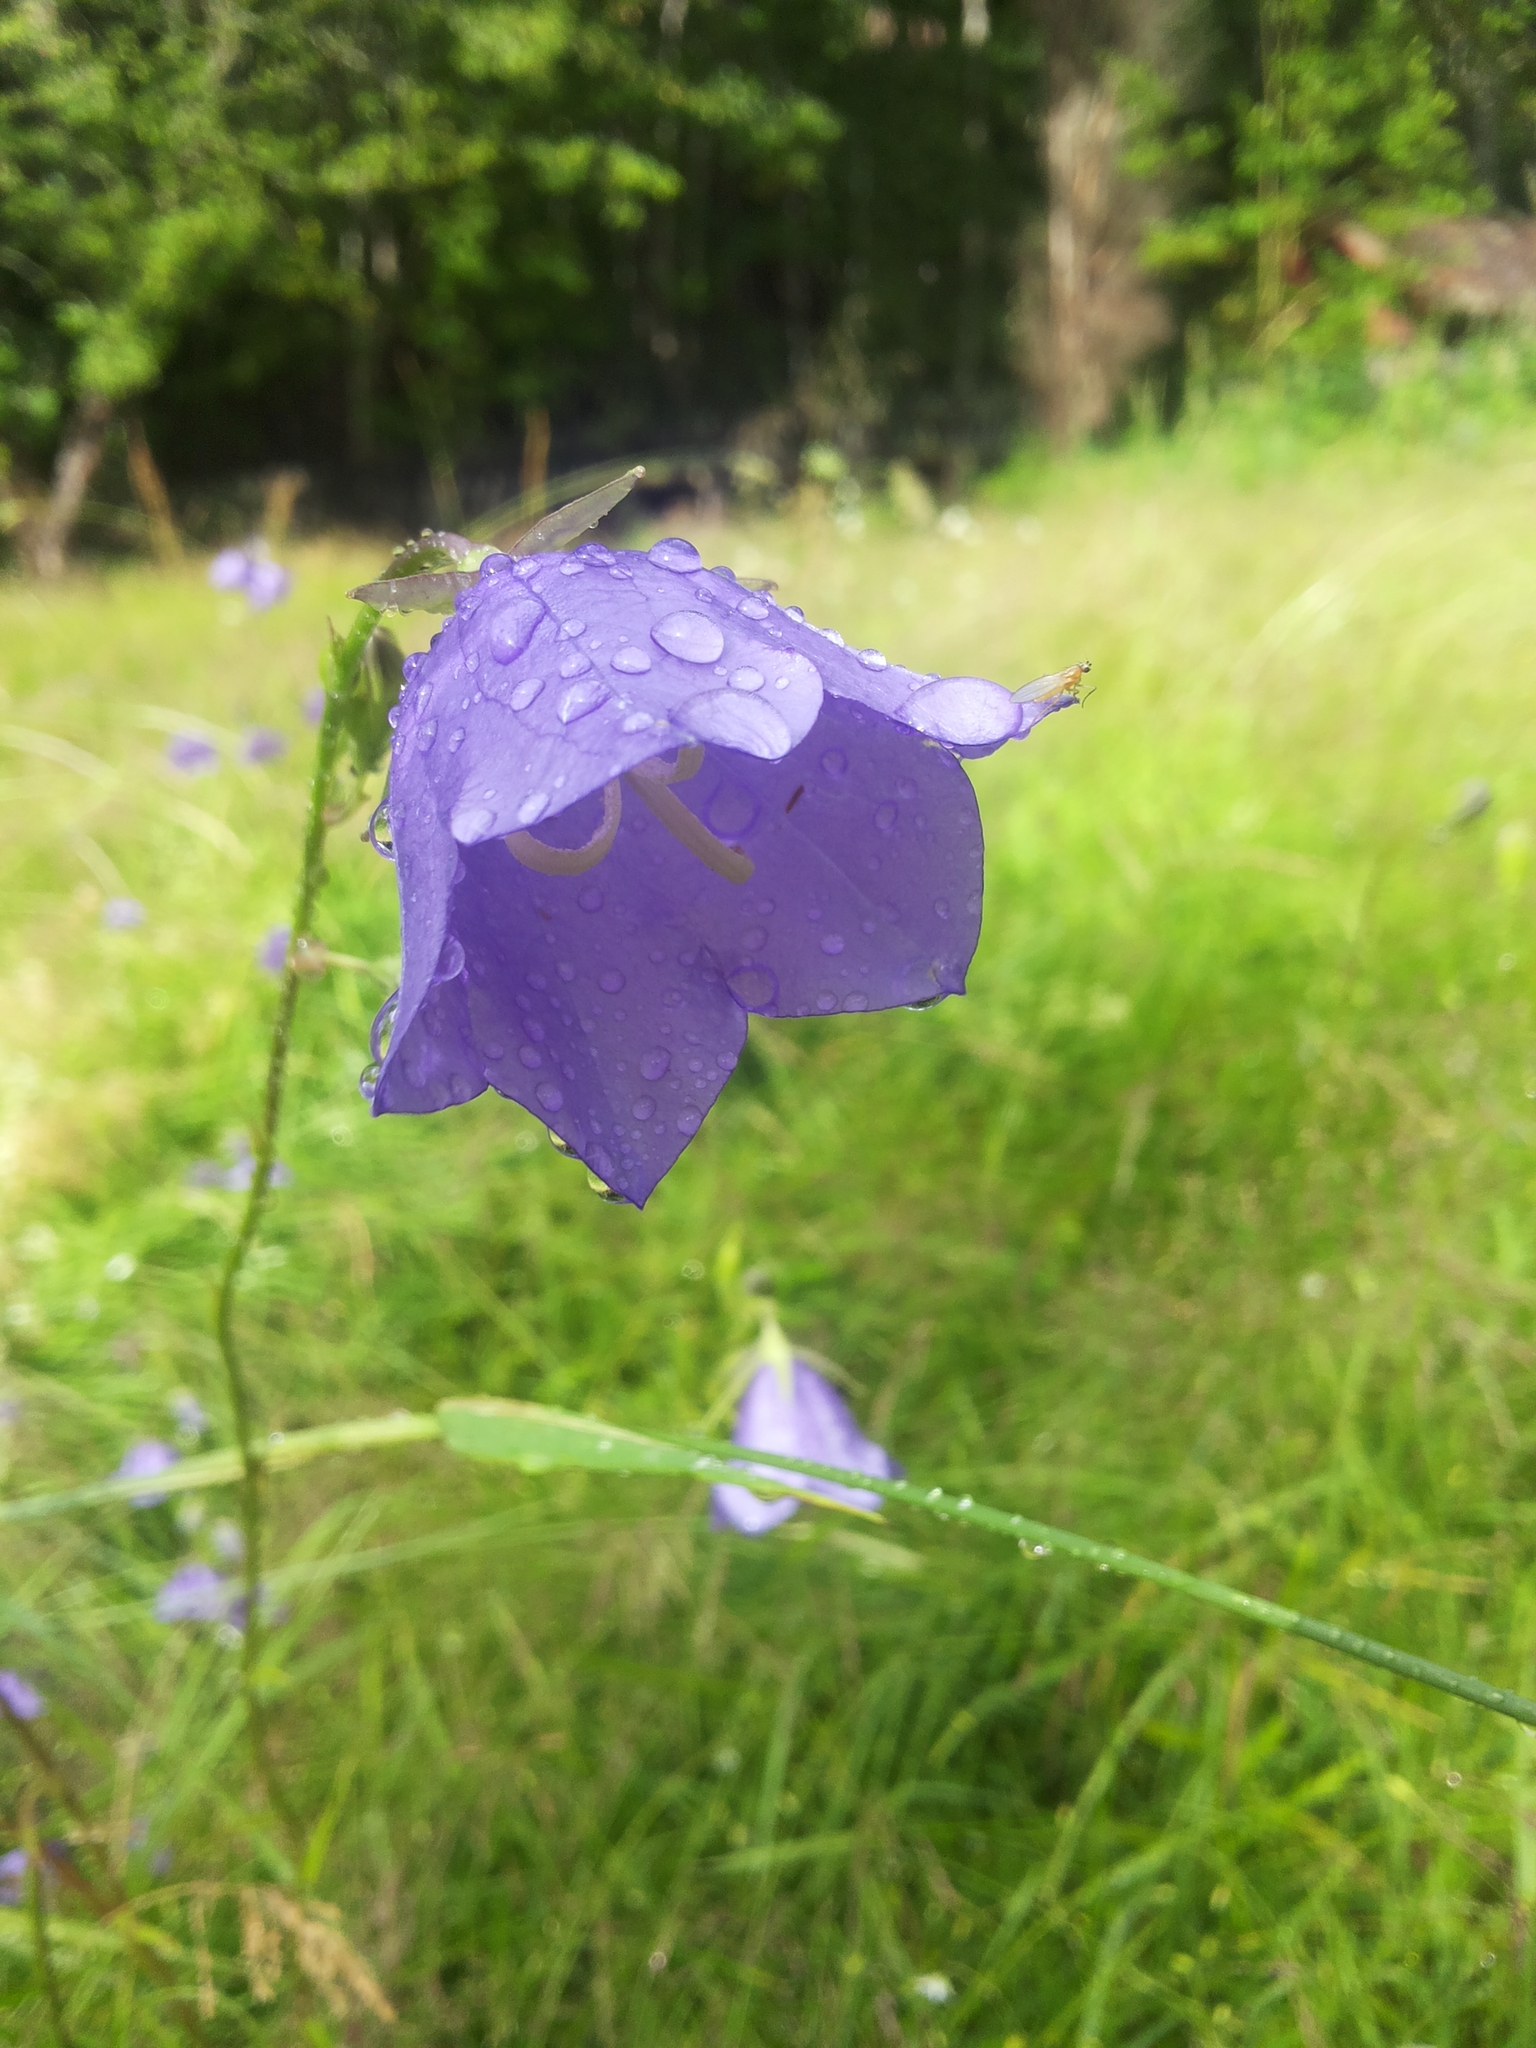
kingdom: Plantae
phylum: Tracheophyta
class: Magnoliopsida
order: Asterales
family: Campanulaceae
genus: Campanula
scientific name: Campanula persicifolia
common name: Peach-leaved bellflower
